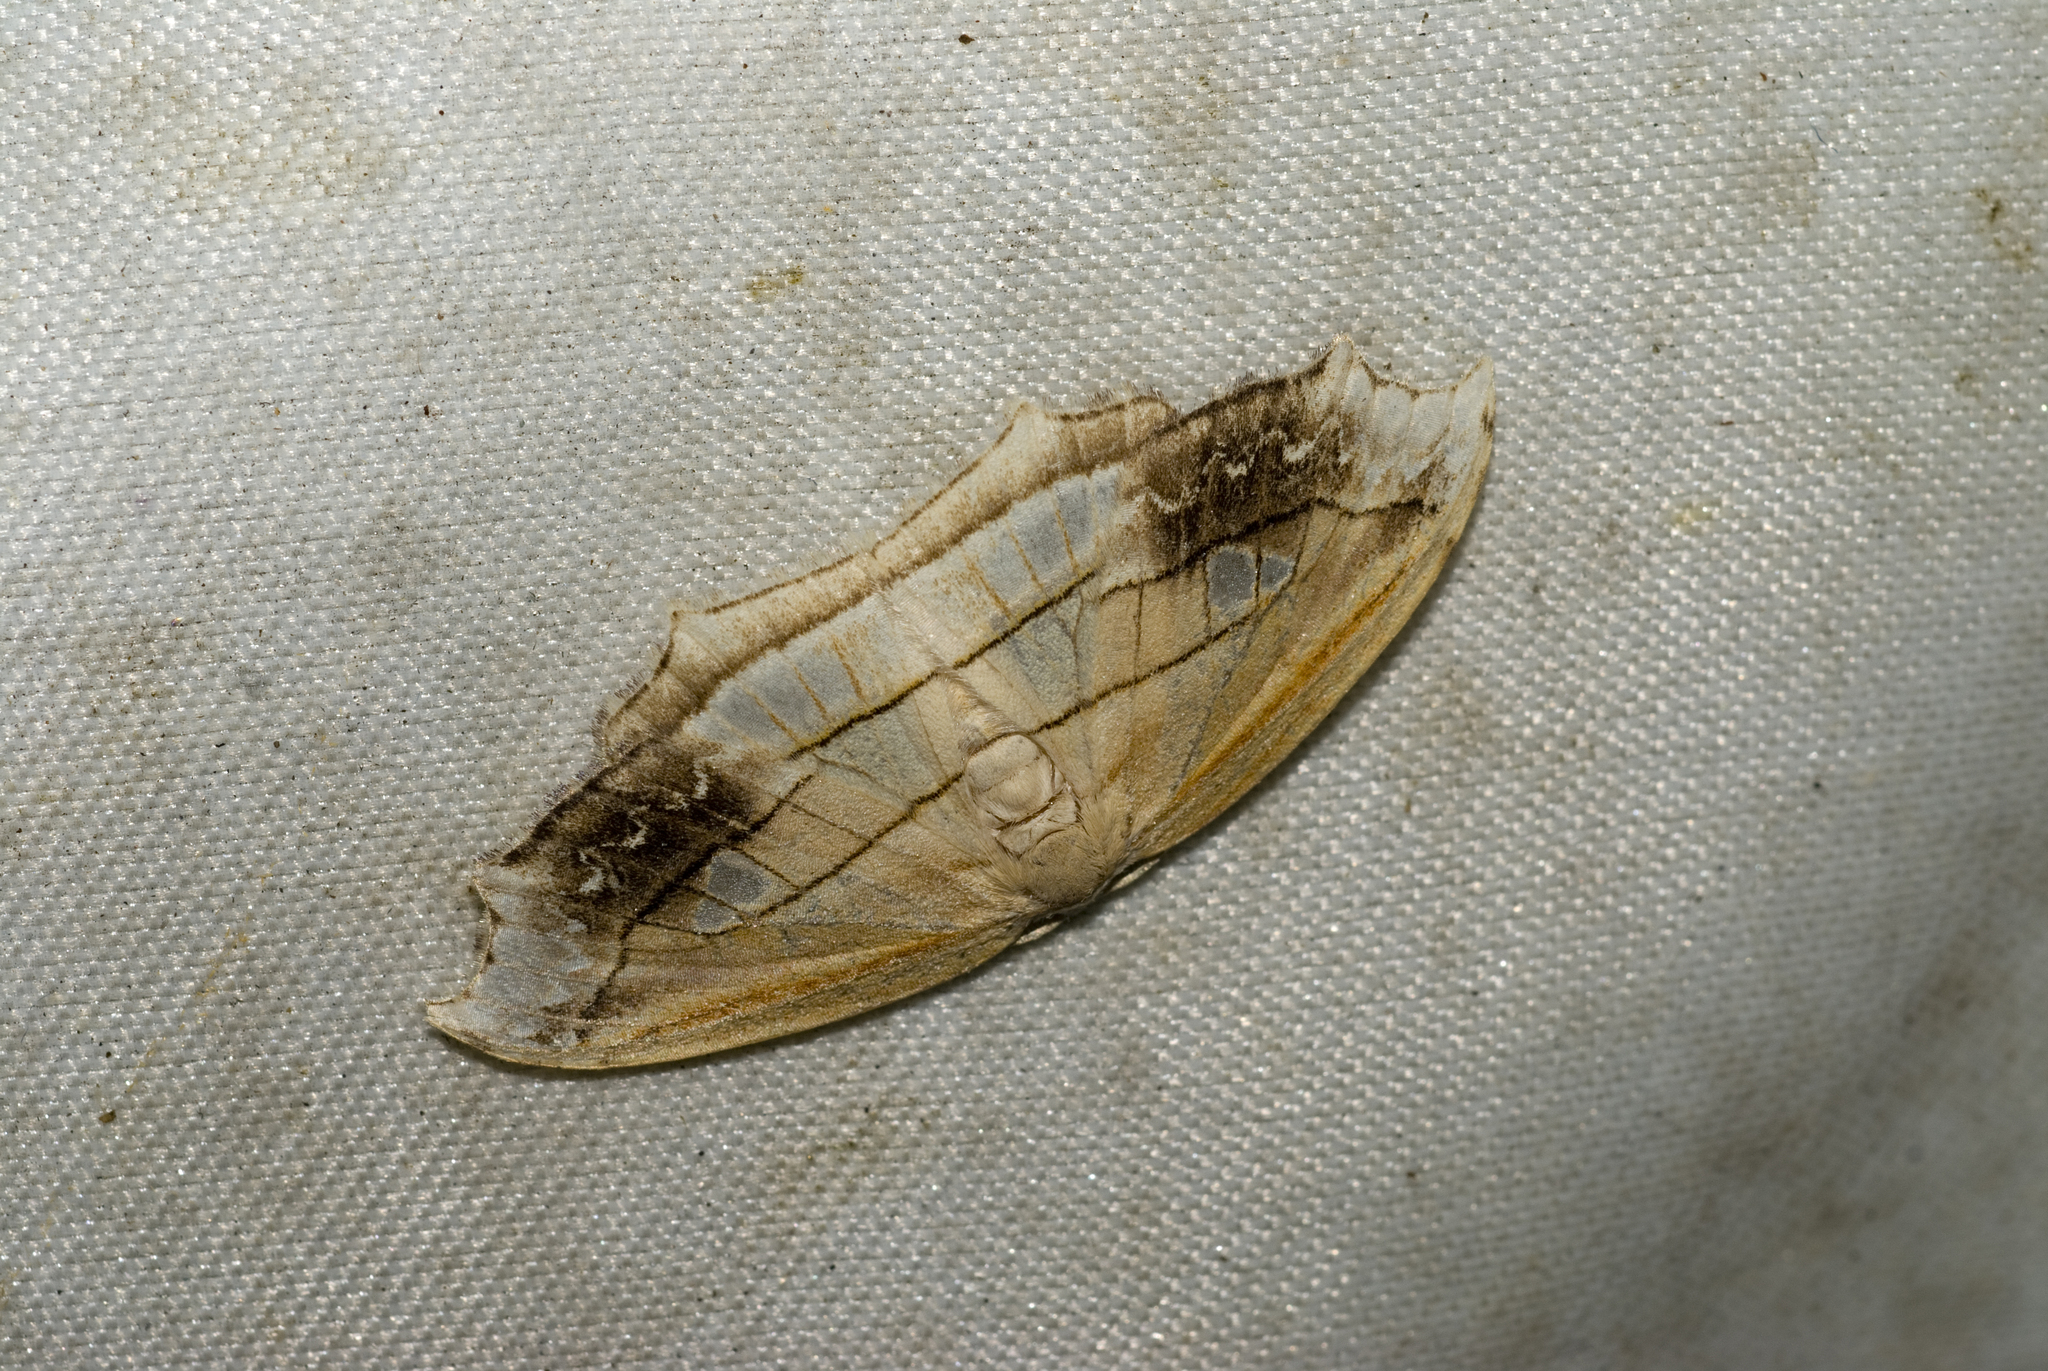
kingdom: Animalia
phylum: Arthropoda
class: Insecta
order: Lepidoptera
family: Drepanidae
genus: Leucoblepsis
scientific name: Leucoblepsis taiwanensis
